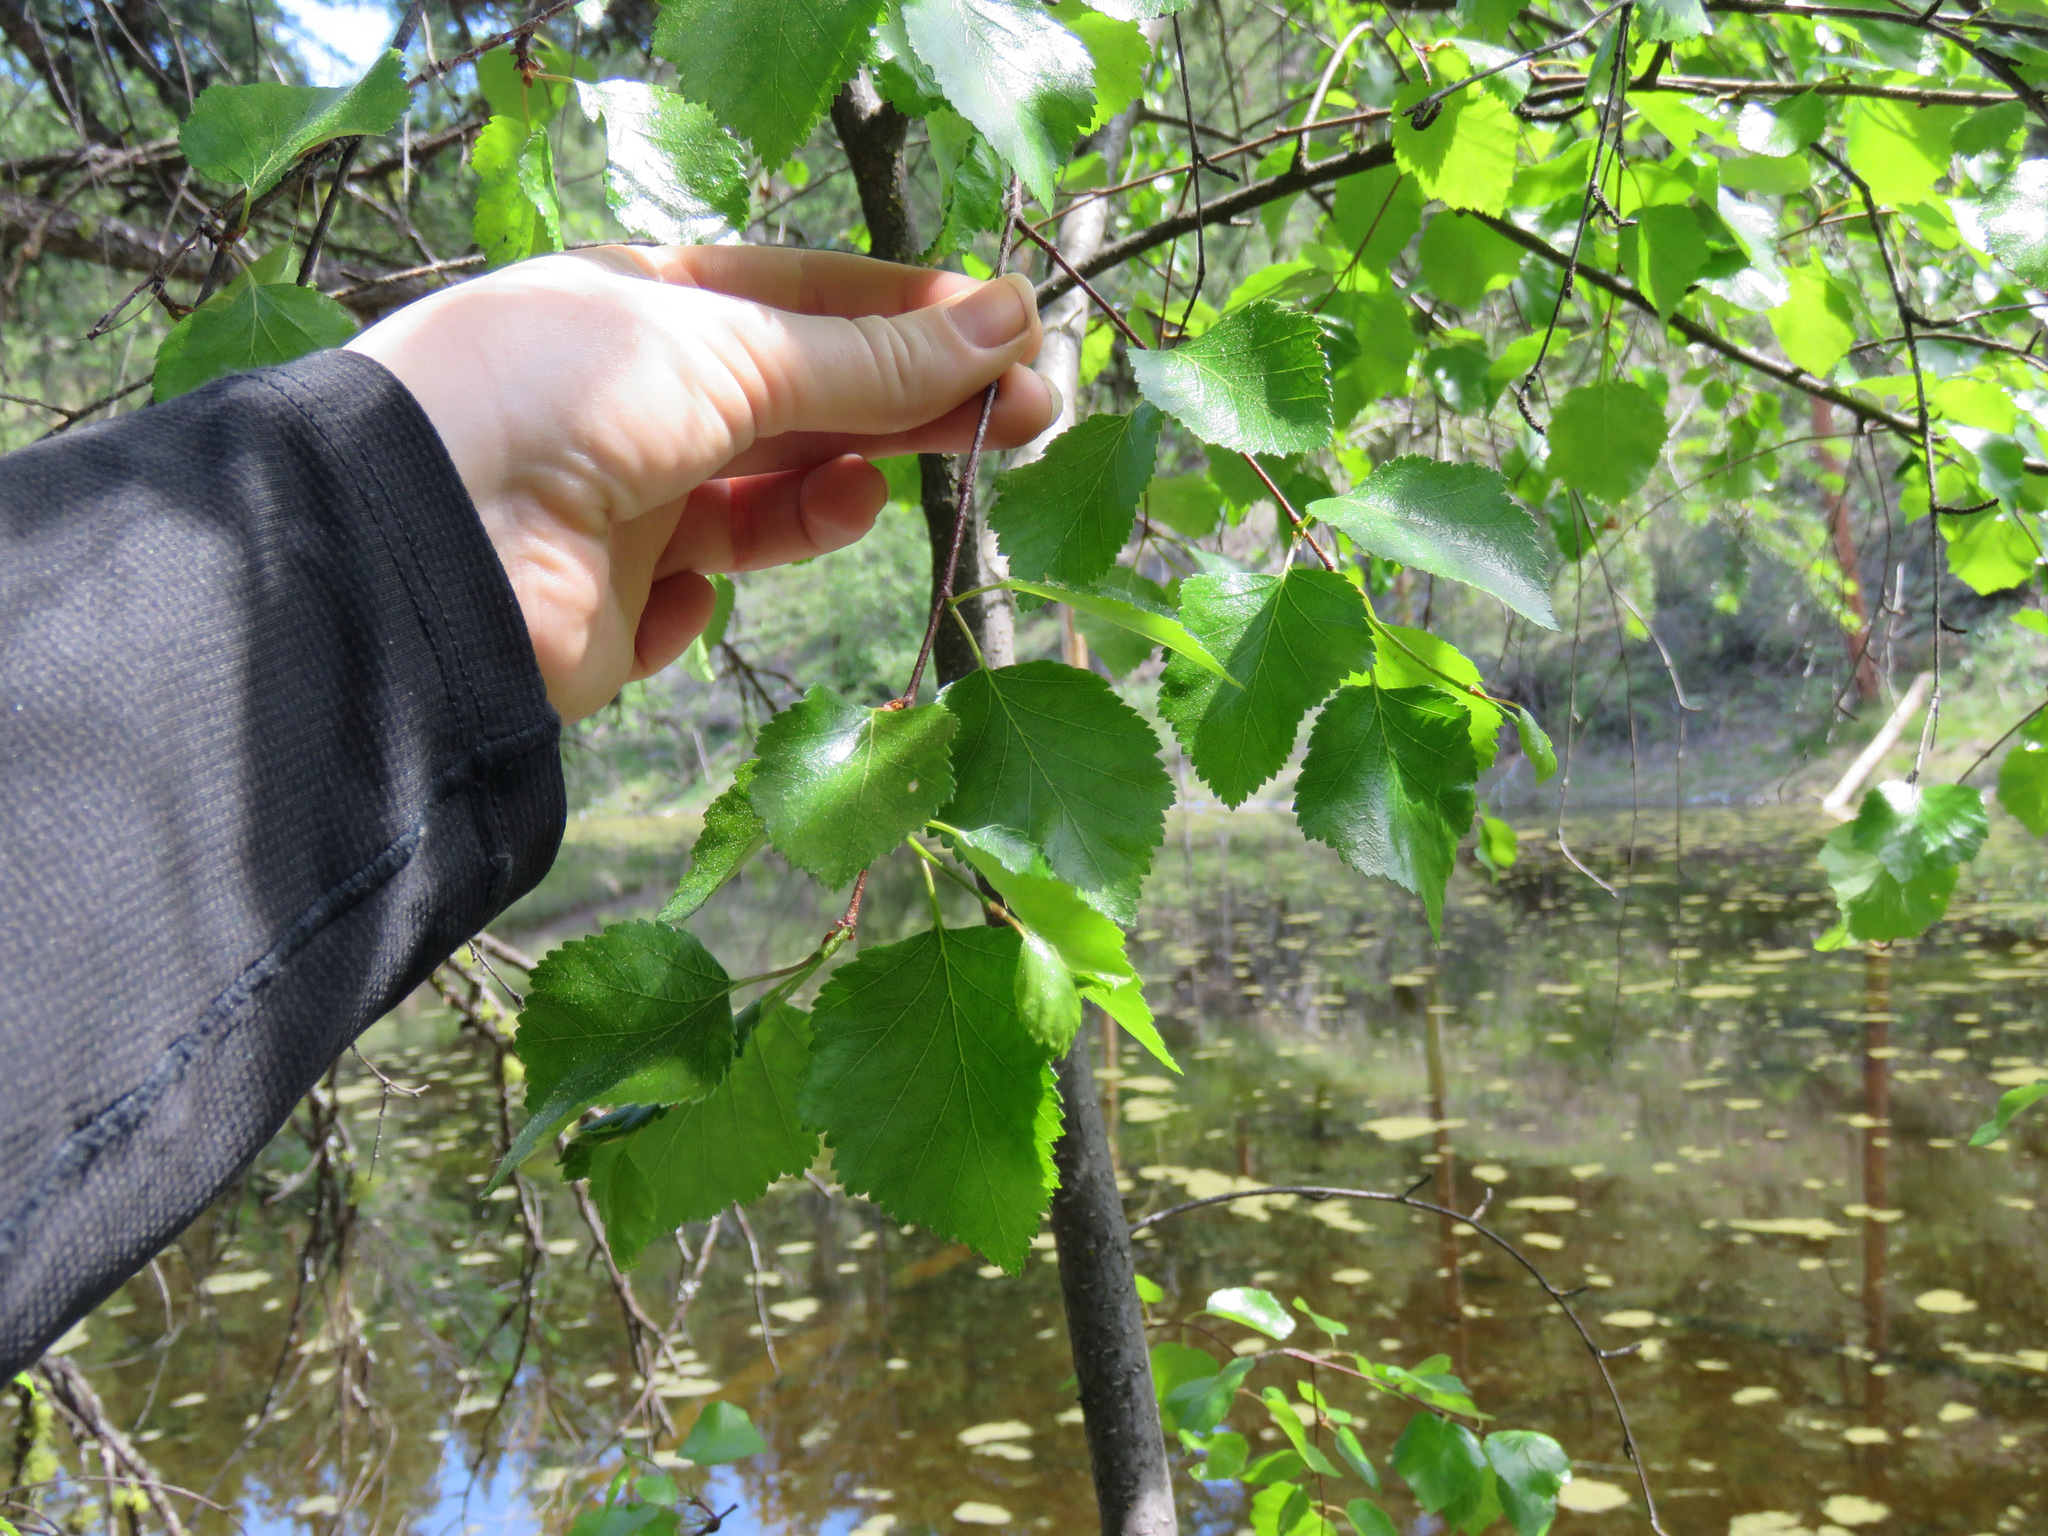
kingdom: Plantae
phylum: Tracheophyta
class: Magnoliopsida
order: Fagales
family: Betulaceae
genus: Betula
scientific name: Betula occidentalis
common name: River birch
